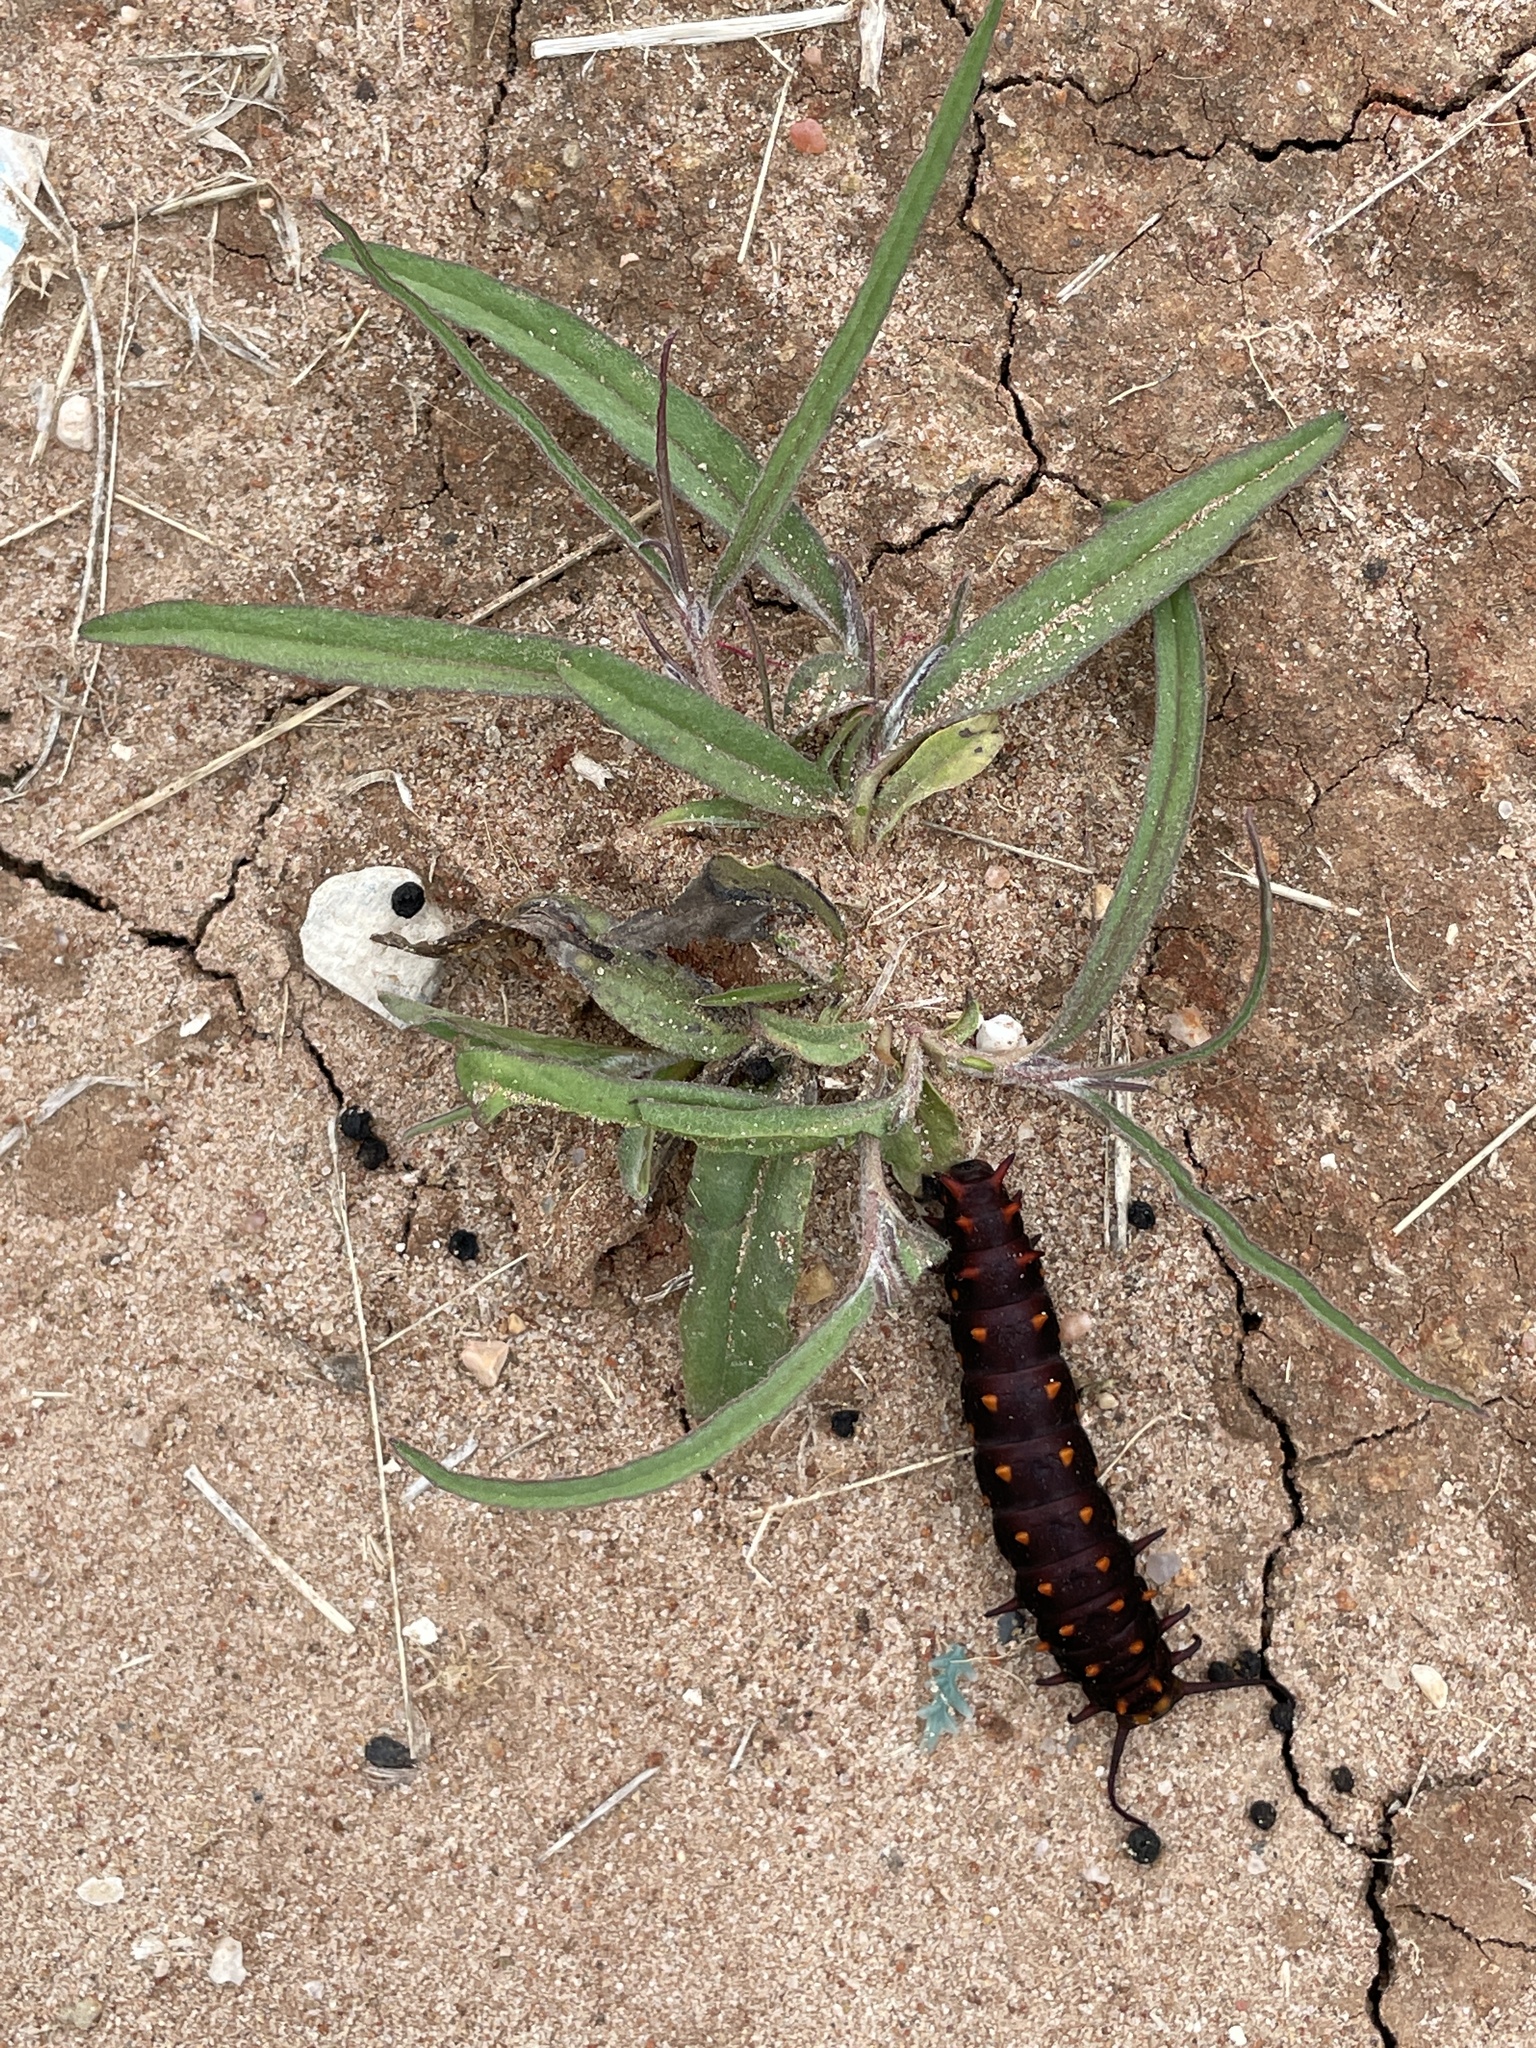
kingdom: Animalia
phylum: Arthropoda
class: Insecta
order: Lepidoptera
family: Papilionidae
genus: Battus
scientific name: Battus philenor
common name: Pipevine swallowtail
